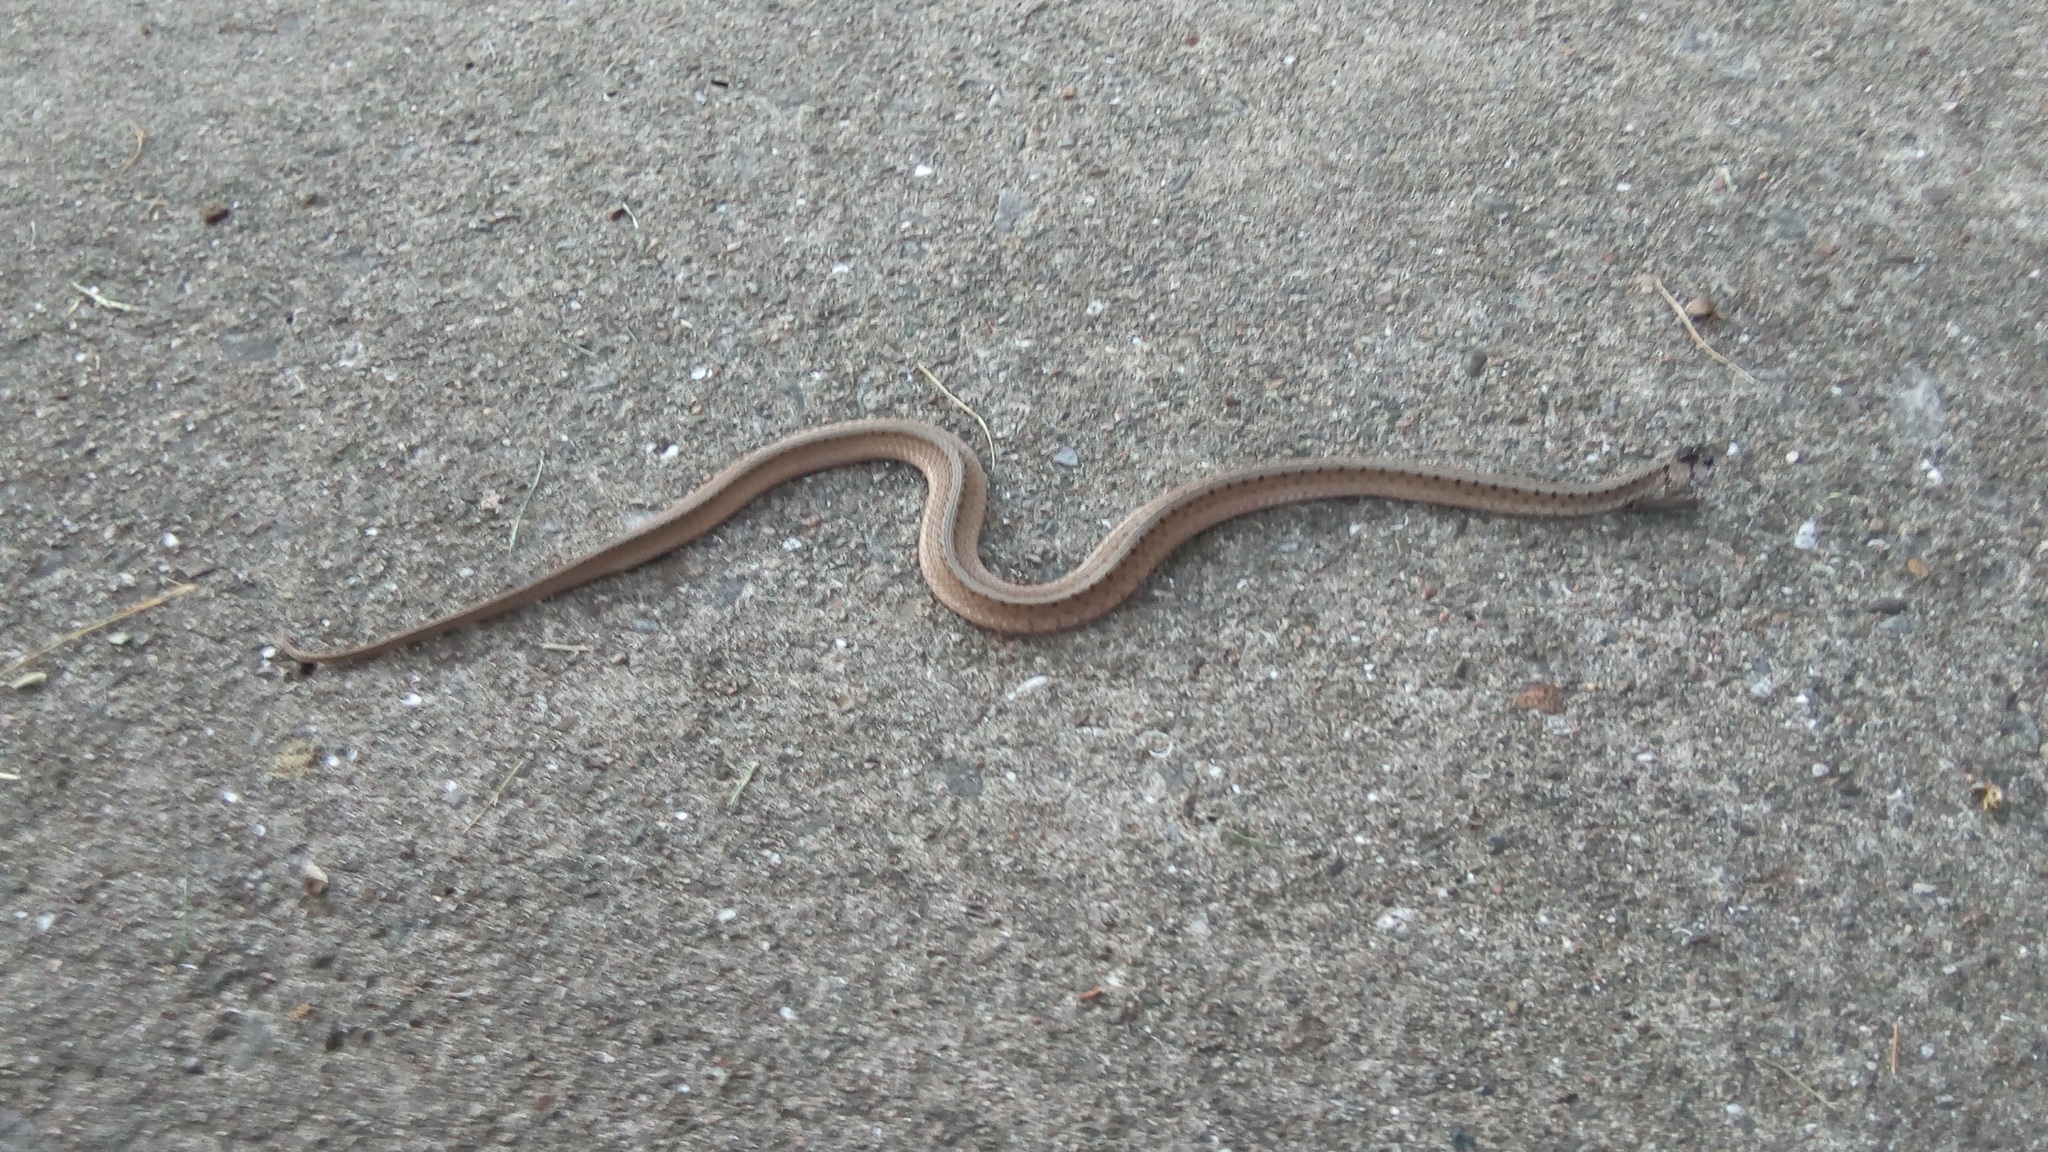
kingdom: Animalia
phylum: Chordata
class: Squamata
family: Colubridae
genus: Storeria
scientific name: Storeria dekayi
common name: (dekay’s) brown snake
